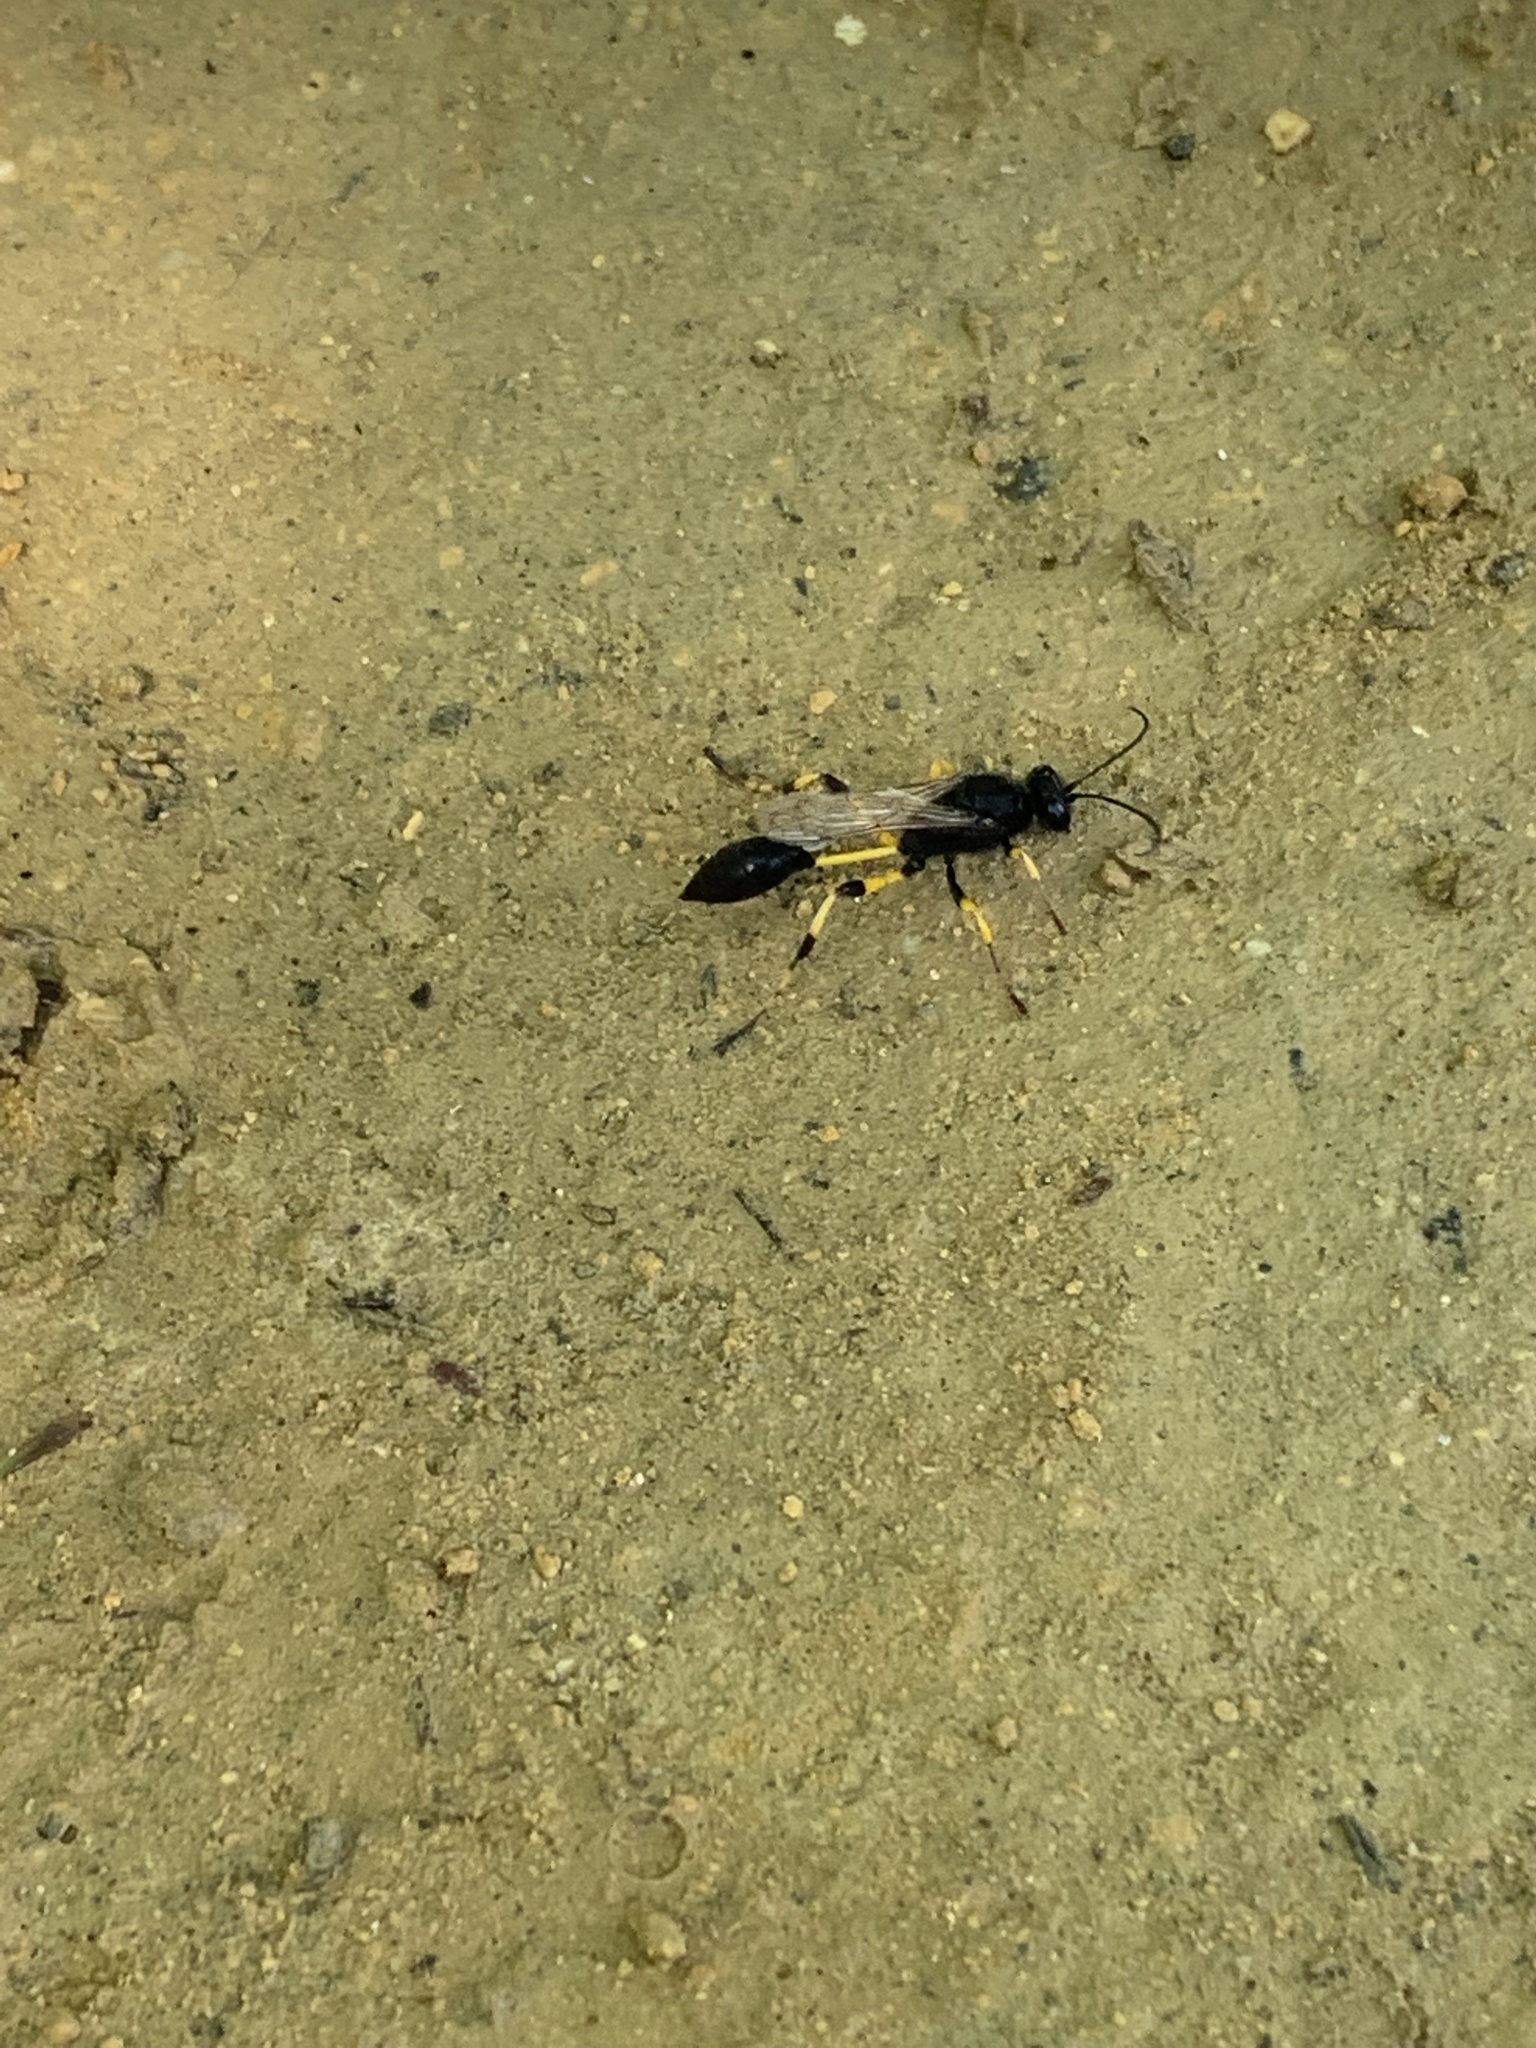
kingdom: Animalia
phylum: Arthropoda
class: Insecta
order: Hymenoptera
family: Sphecidae
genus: Sceliphron
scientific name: Sceliphron spirifex
